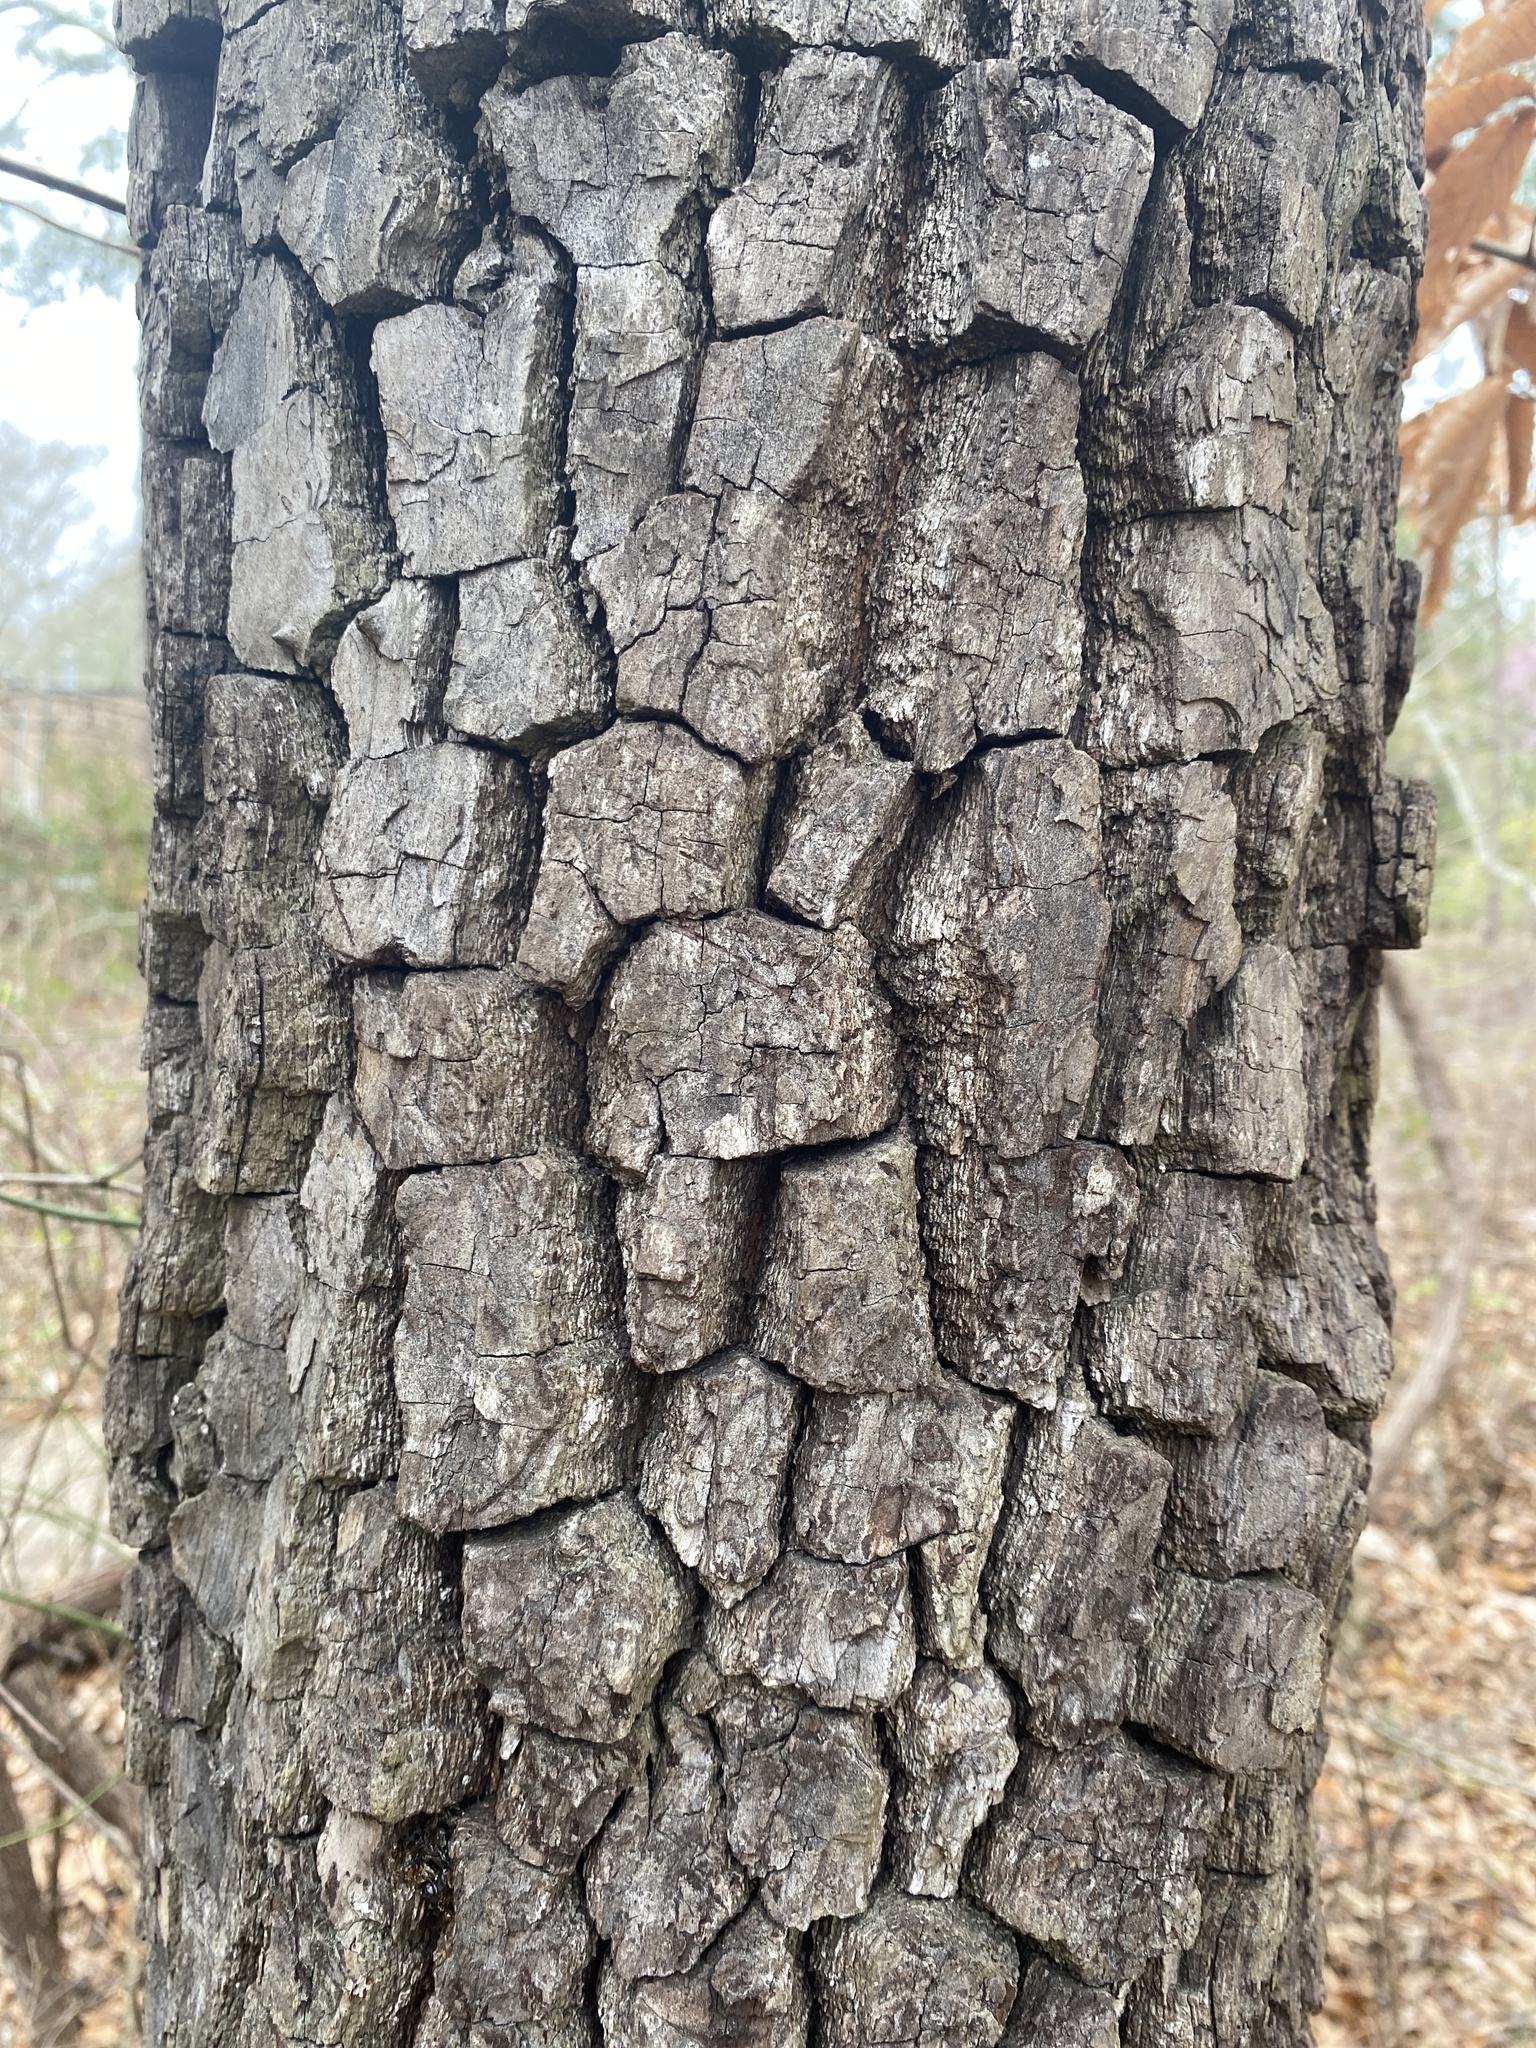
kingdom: Plantae
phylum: Tracheophyta
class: Magnoliopsida
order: Ericales
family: Ebenaceae
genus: Diospyros
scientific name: Diospyros virginiana
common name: Persimmon
